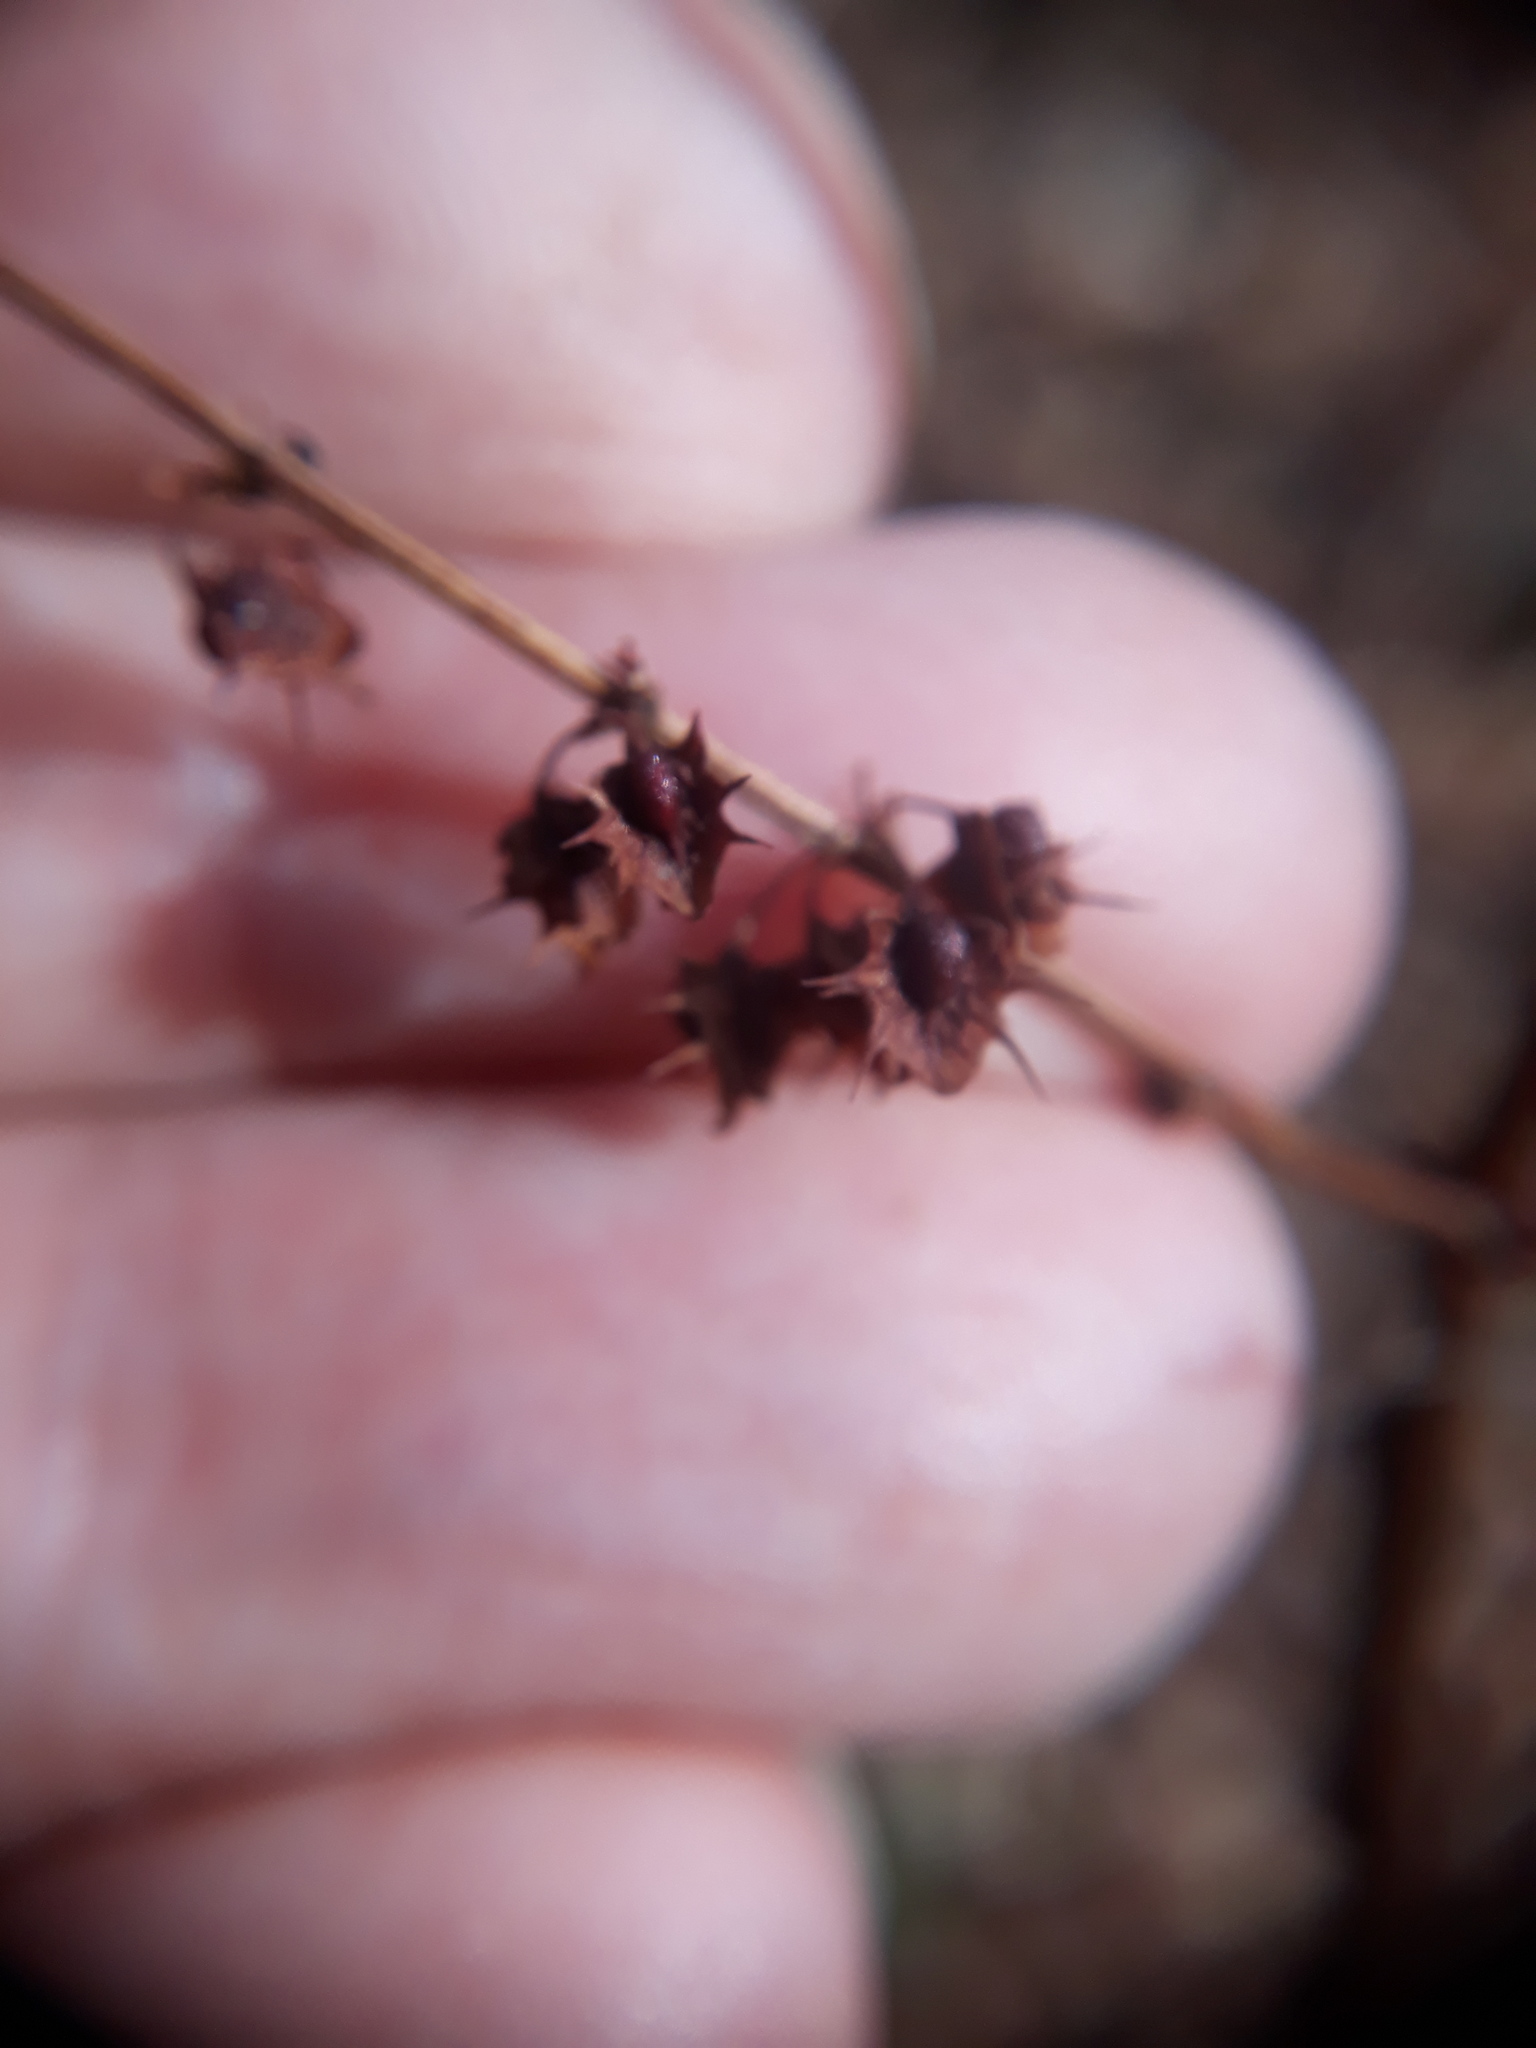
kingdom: Plantae
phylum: Tracheophyta
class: Magnoliopsida
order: Caryophyllales
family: Polygonaceae
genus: Rumex
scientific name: Rumex obtusifolius
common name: Bitter dock
